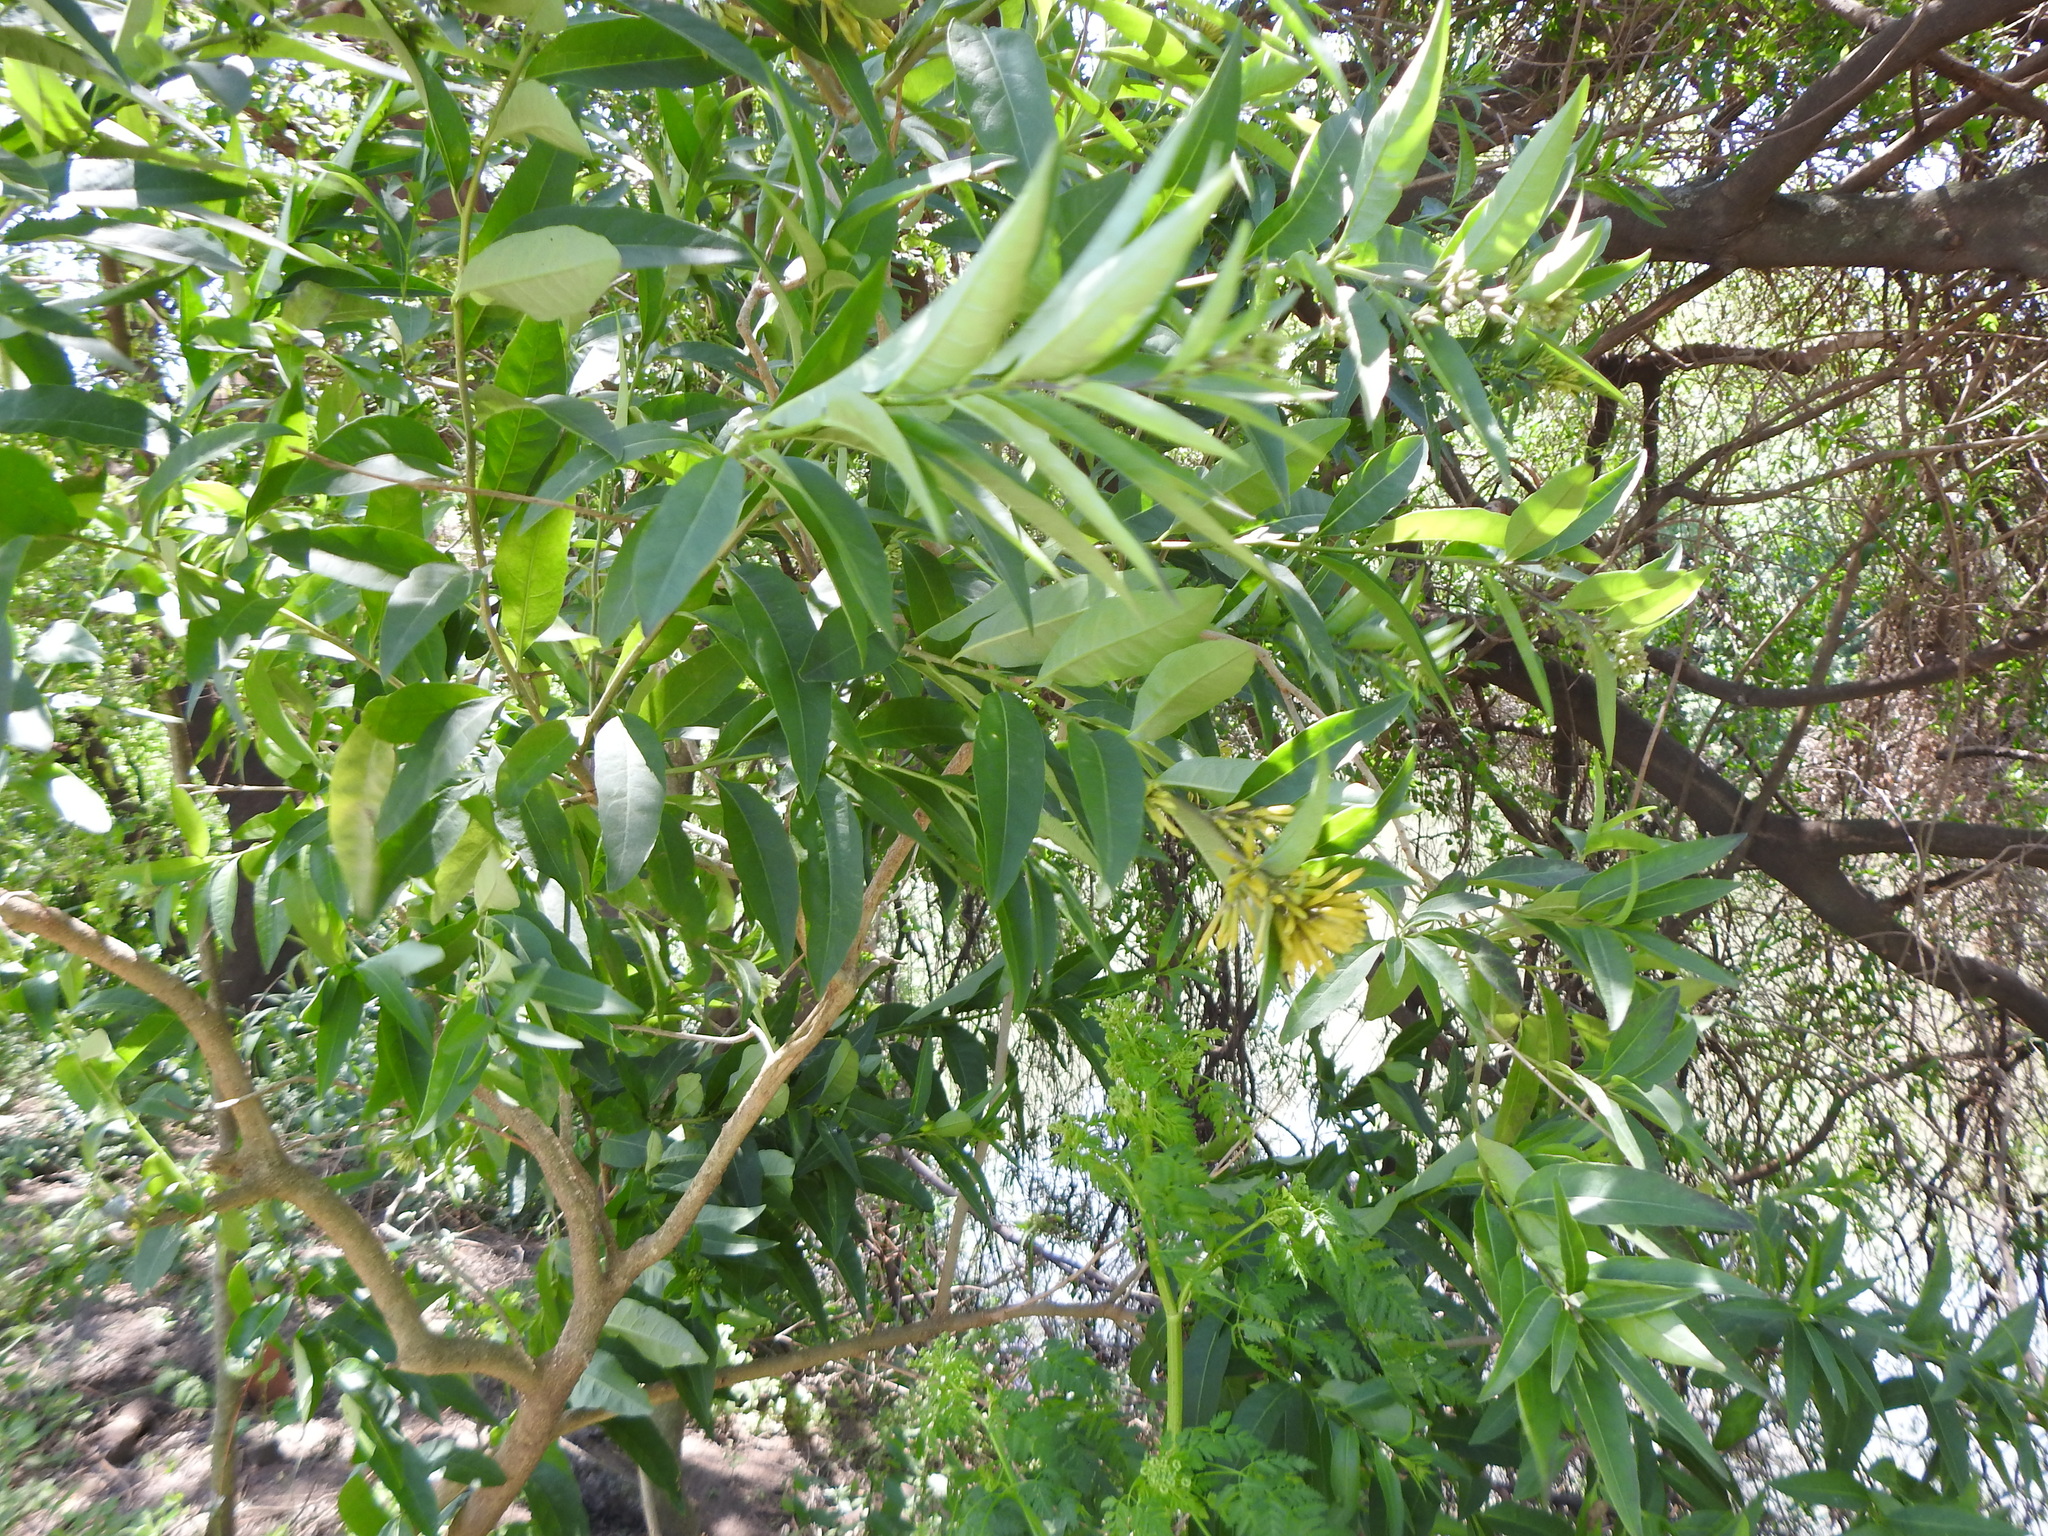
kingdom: Plantae
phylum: Tracheophyta
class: Magnoliopsida
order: Solanales
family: Solanaceae
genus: Cestrum
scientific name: Cestrum parqui
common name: Chilean cestrum
